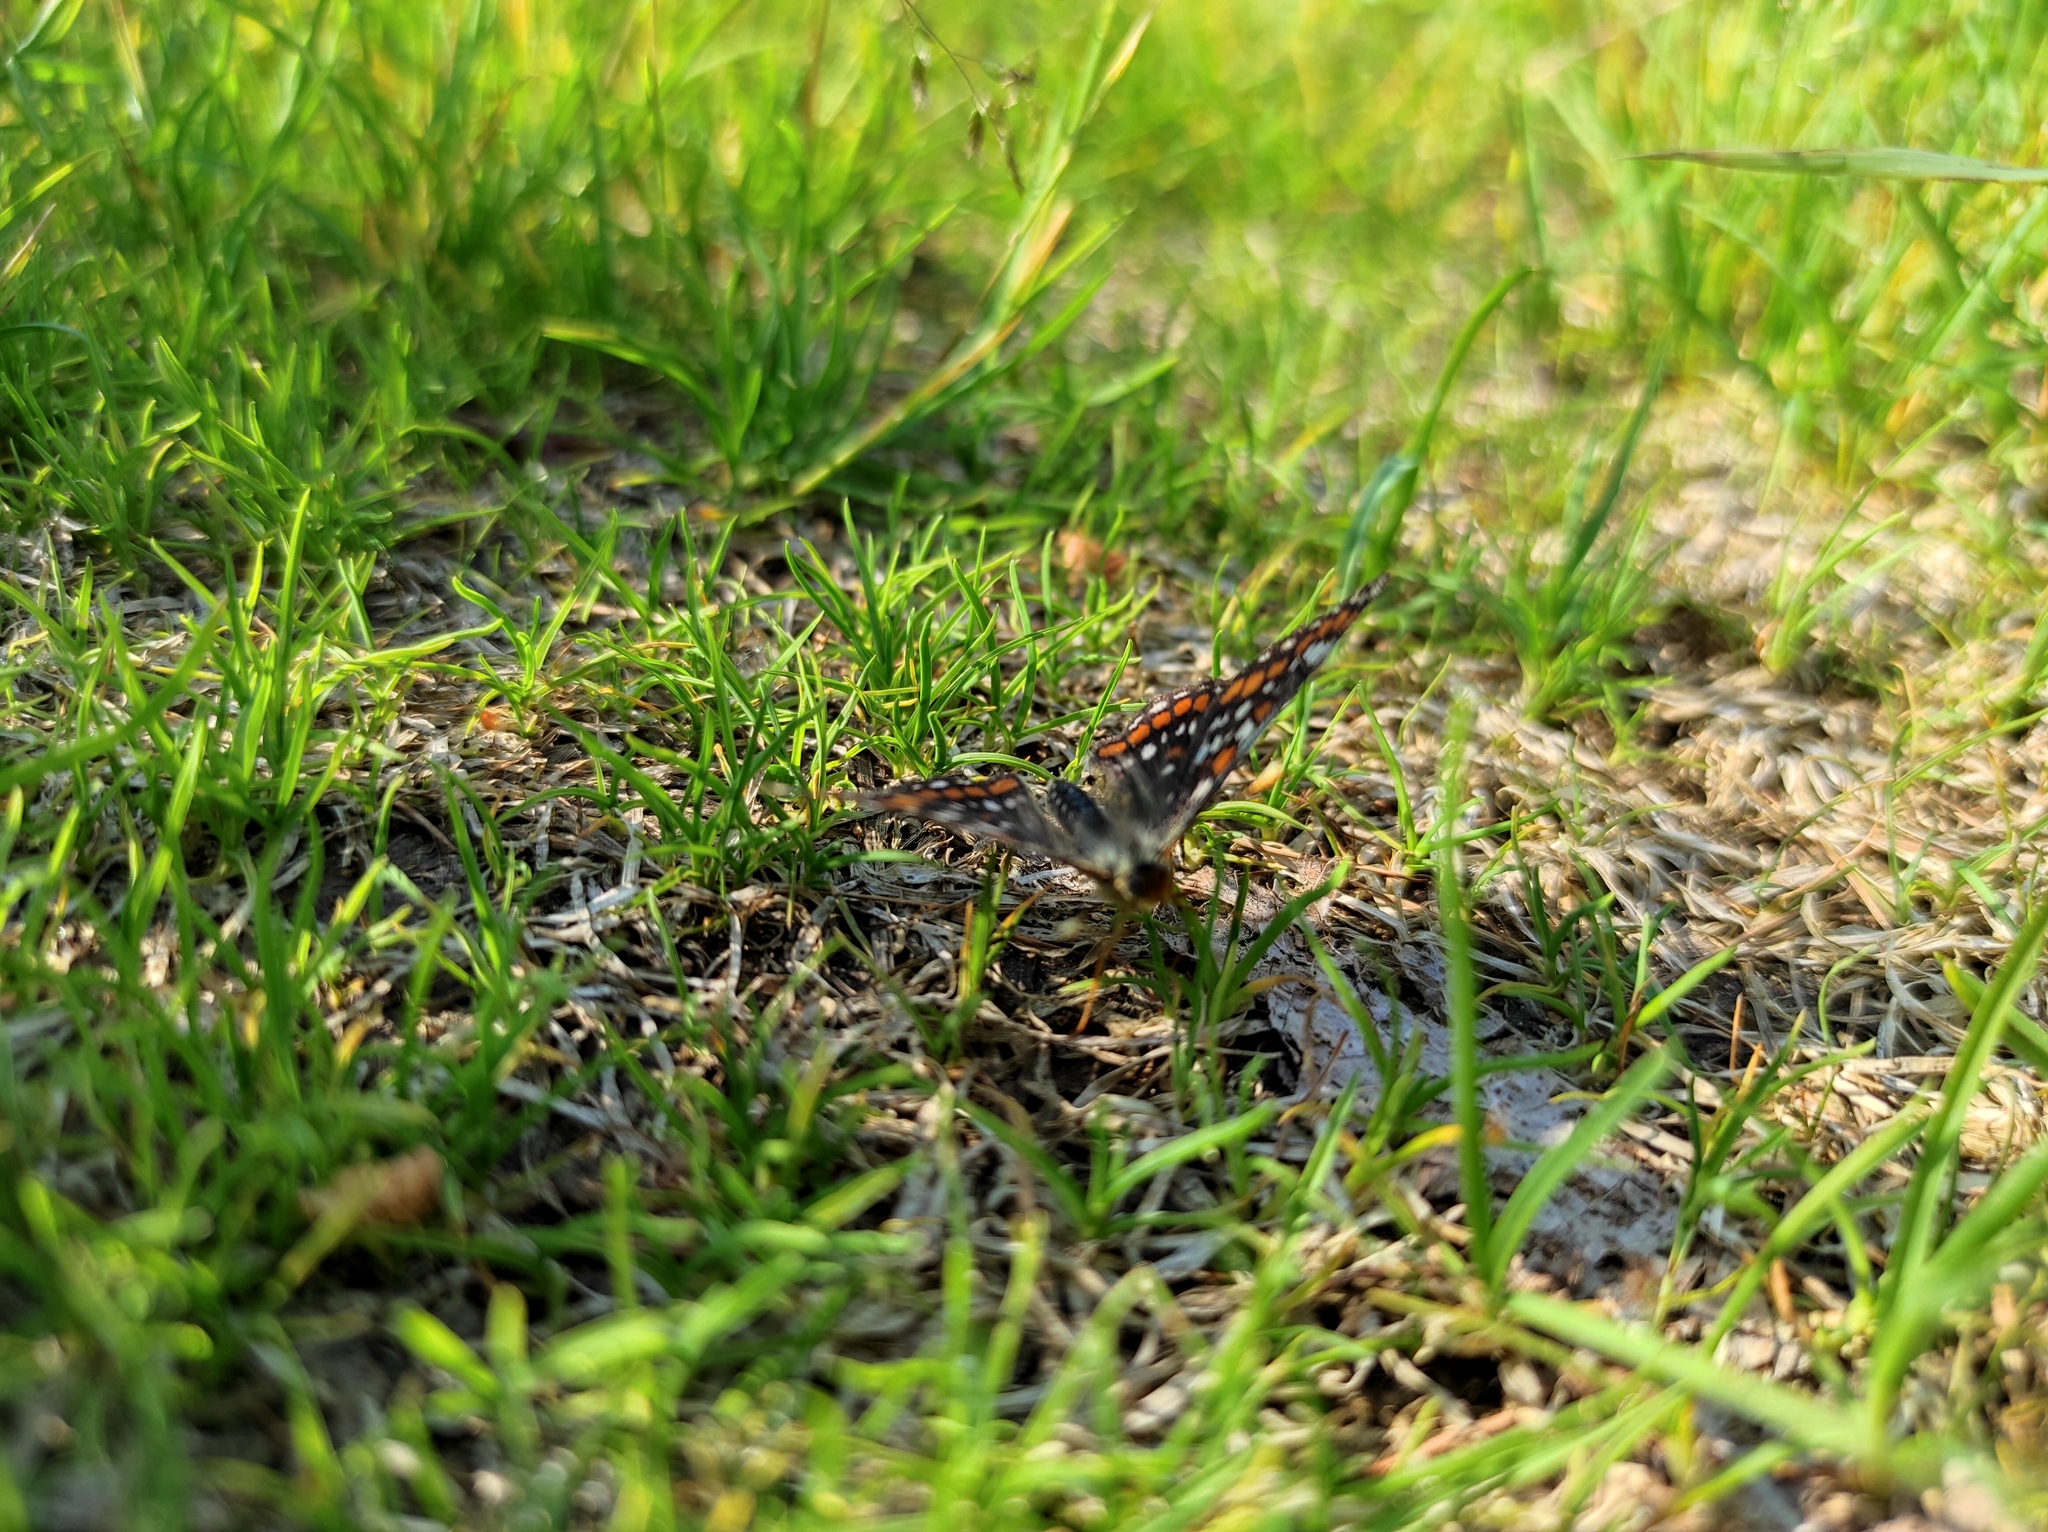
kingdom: Animalia
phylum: Arthropoda
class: Insecta
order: Lepidoptera
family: Nymphalidae
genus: Euphydryas
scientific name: Euphydryas maturna
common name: Scarce fritillary
